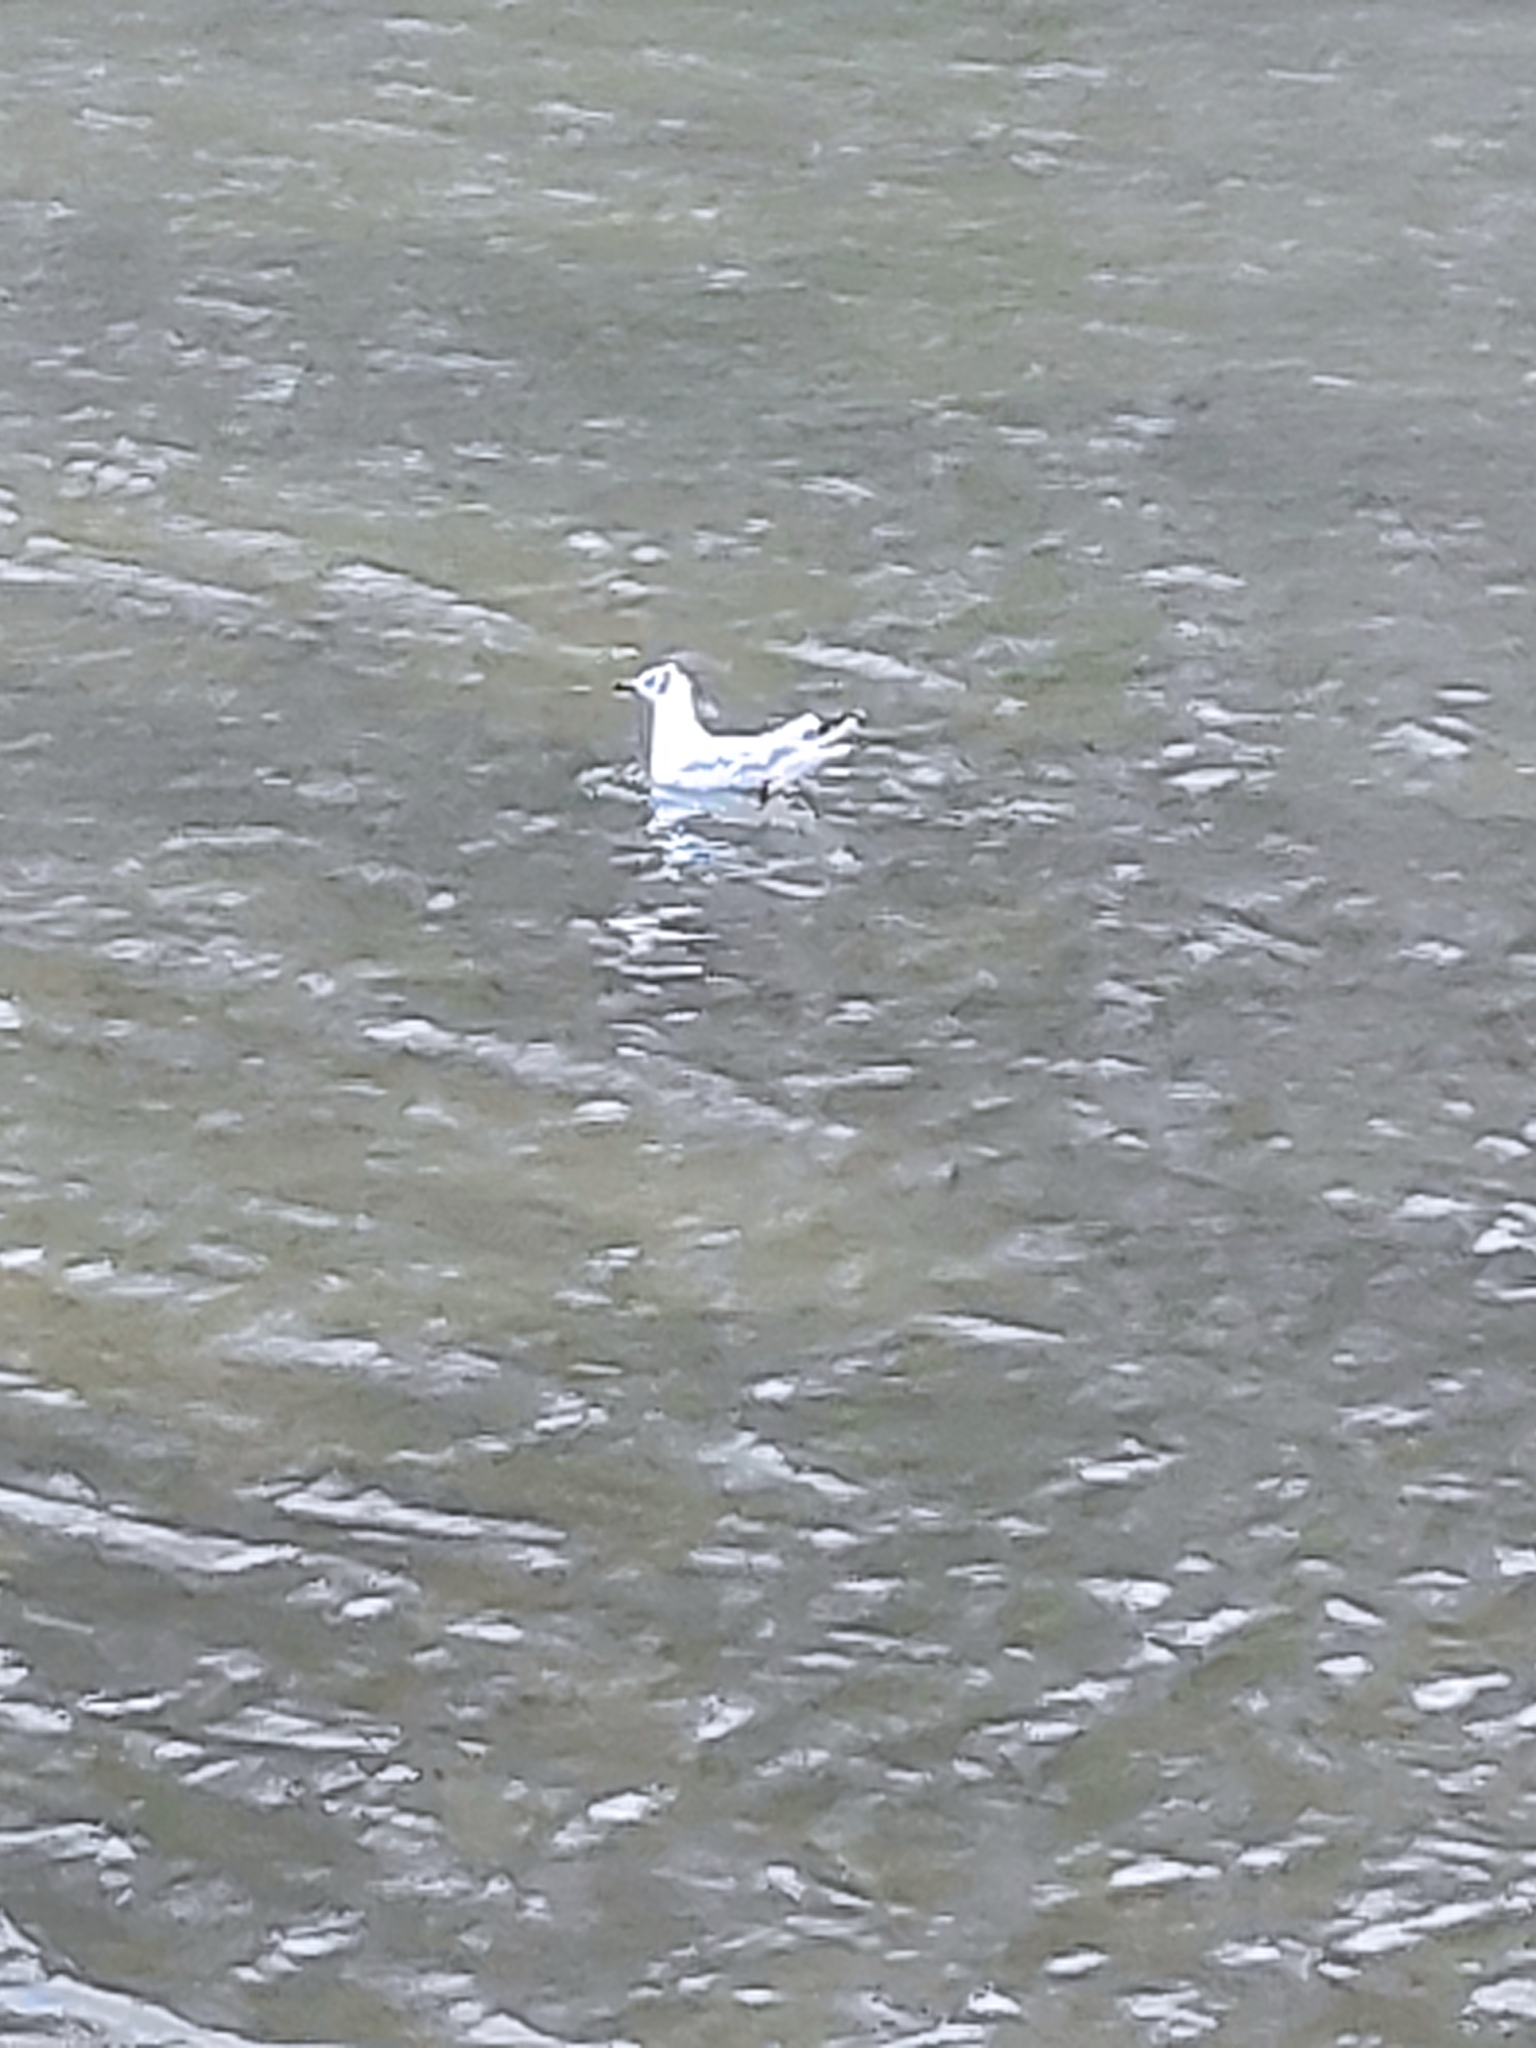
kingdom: Animalia
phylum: Chordata
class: Aves
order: Charadriiformes
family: Laridae
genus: Chroicocephalus
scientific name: Chroicocephalus ridibundus
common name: Black-headed gull
